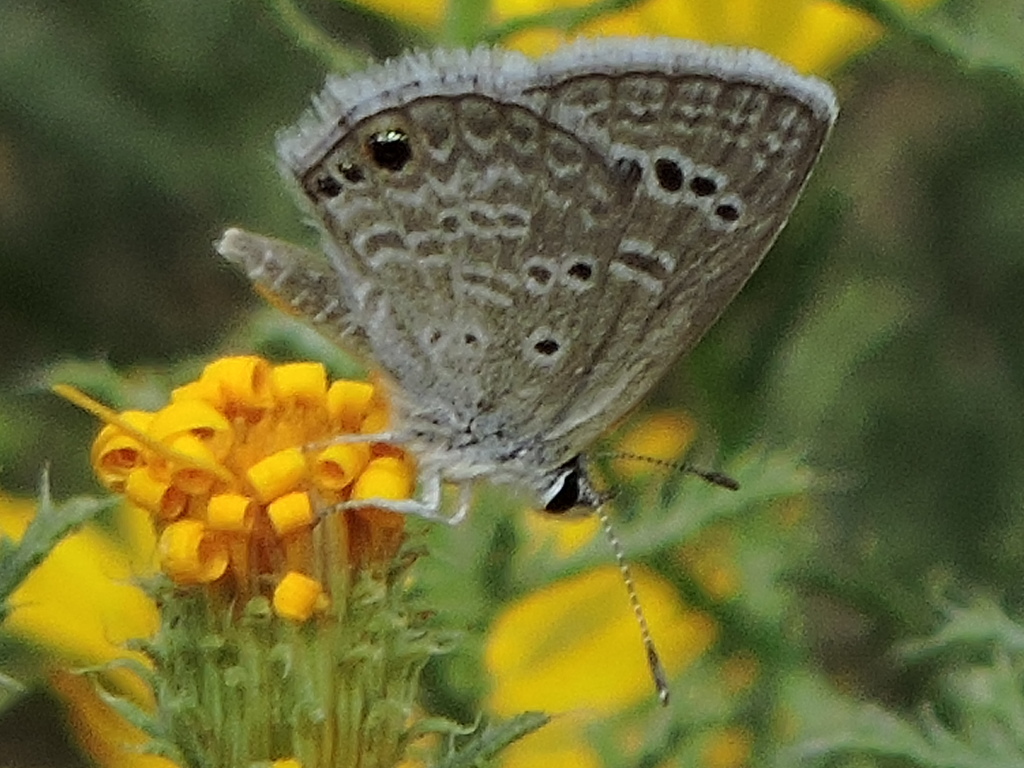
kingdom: Animalia
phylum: Arthropoda
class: Insecta
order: Lepidoptera
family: Lycaenidae
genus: Echinargus
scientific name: Echinargus isola
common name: Reakirt's blue
